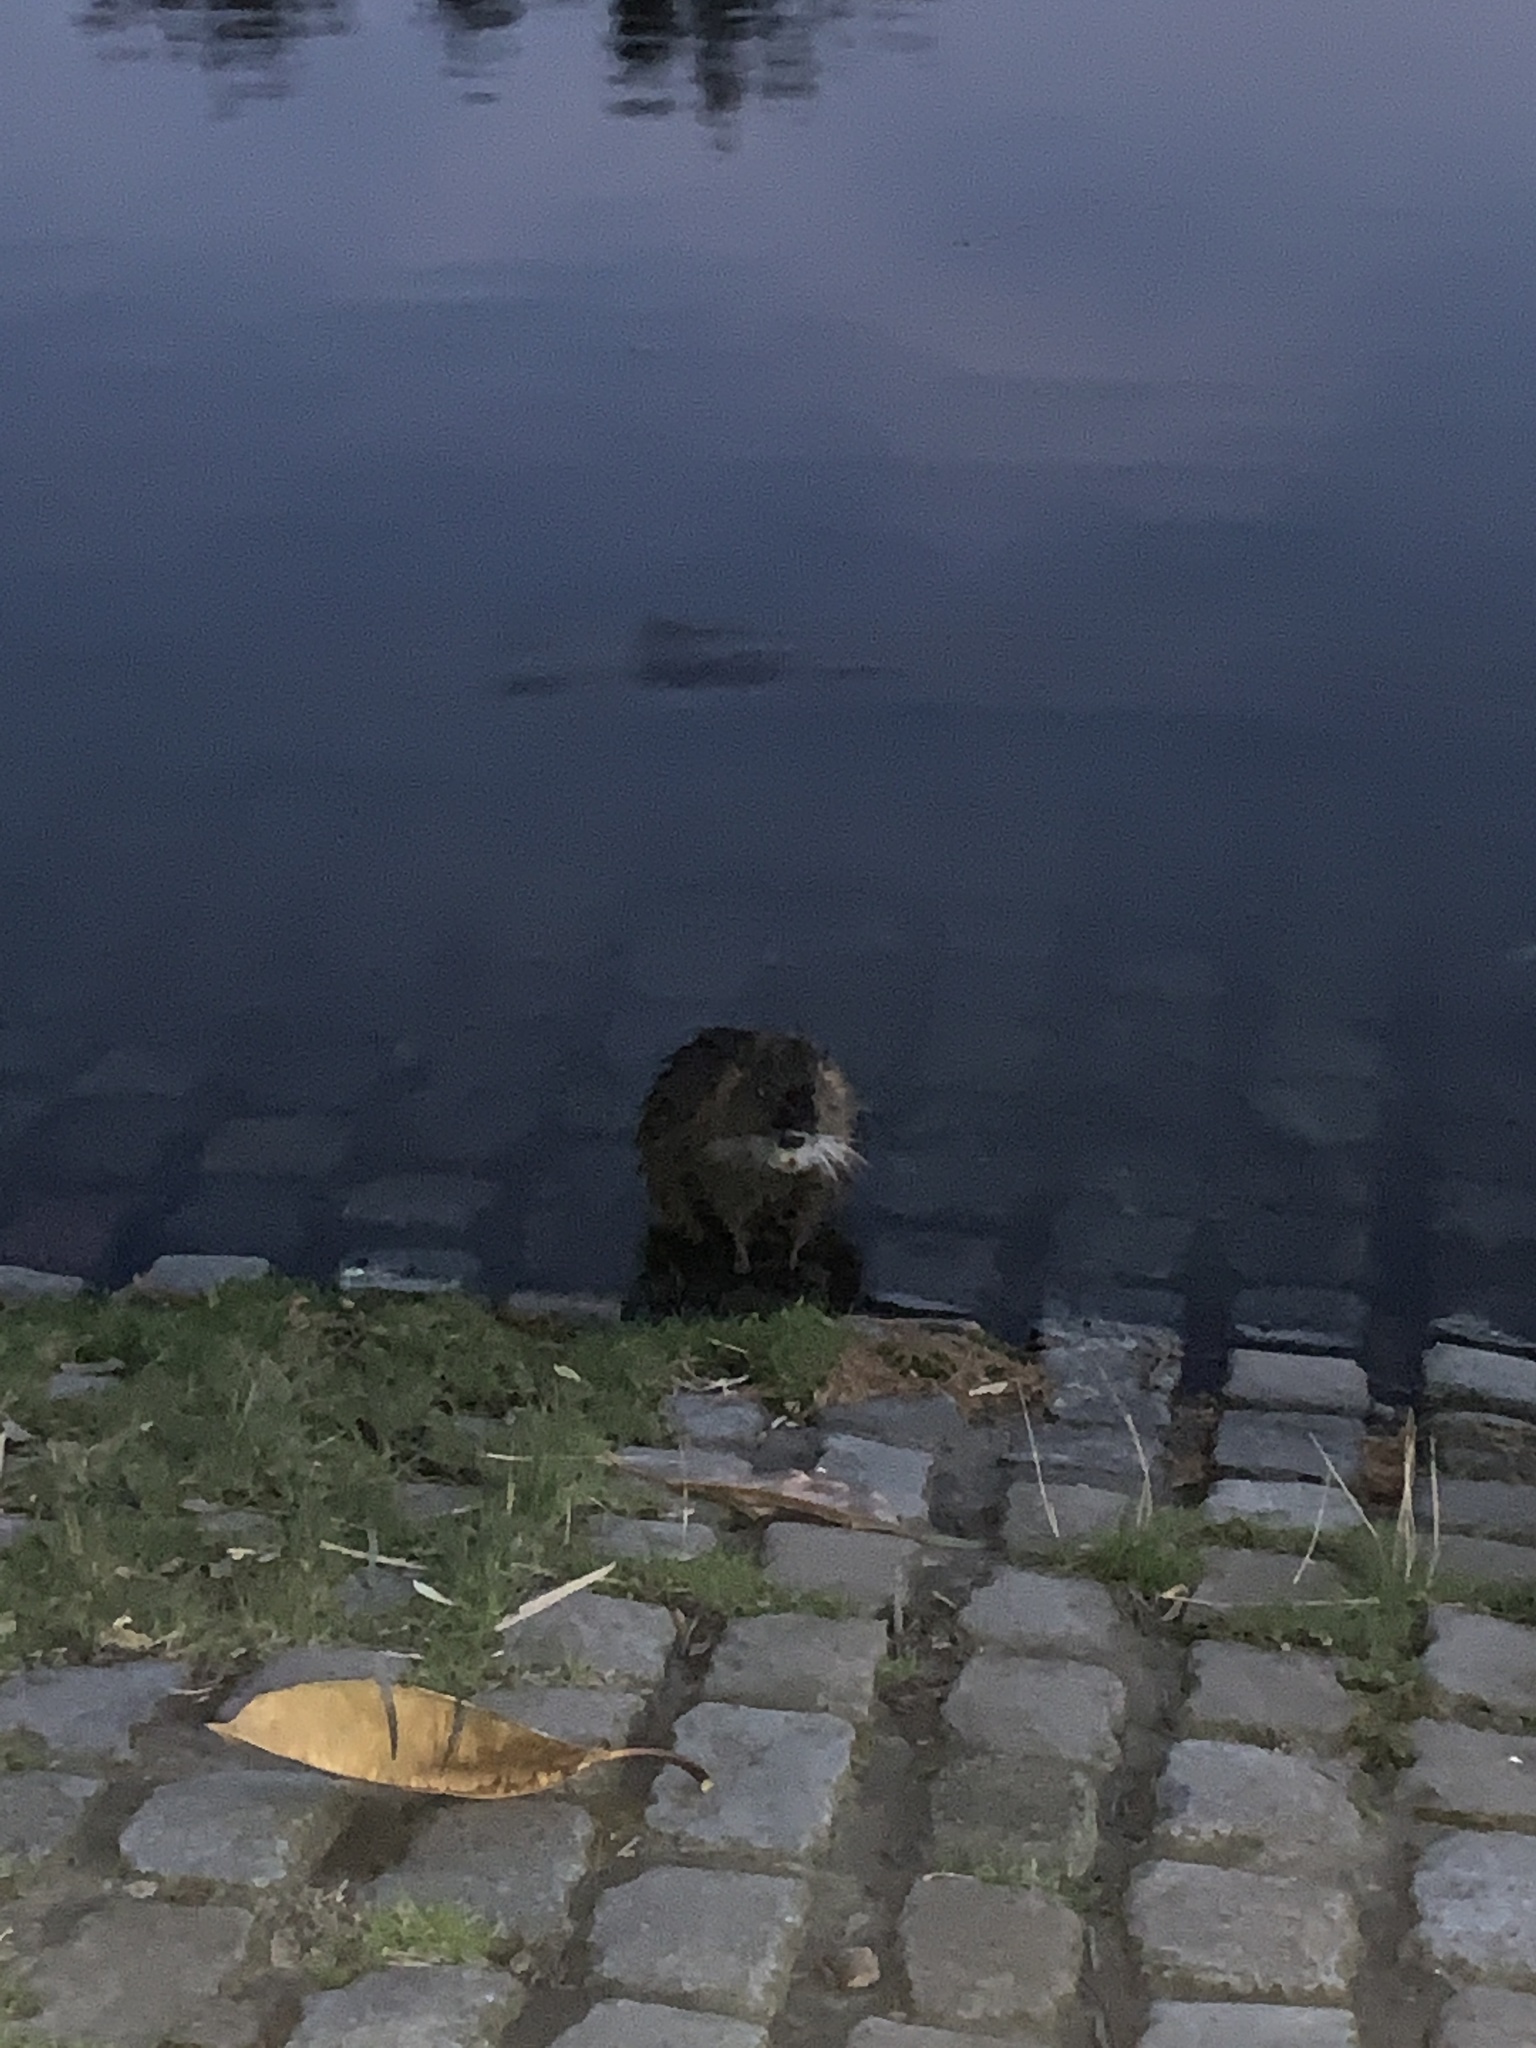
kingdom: Animalia
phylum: Chordata
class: Mammalia
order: Rodentia
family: Myocastoridae
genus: Myocastor
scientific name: Myocastor coypus
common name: Coypu
